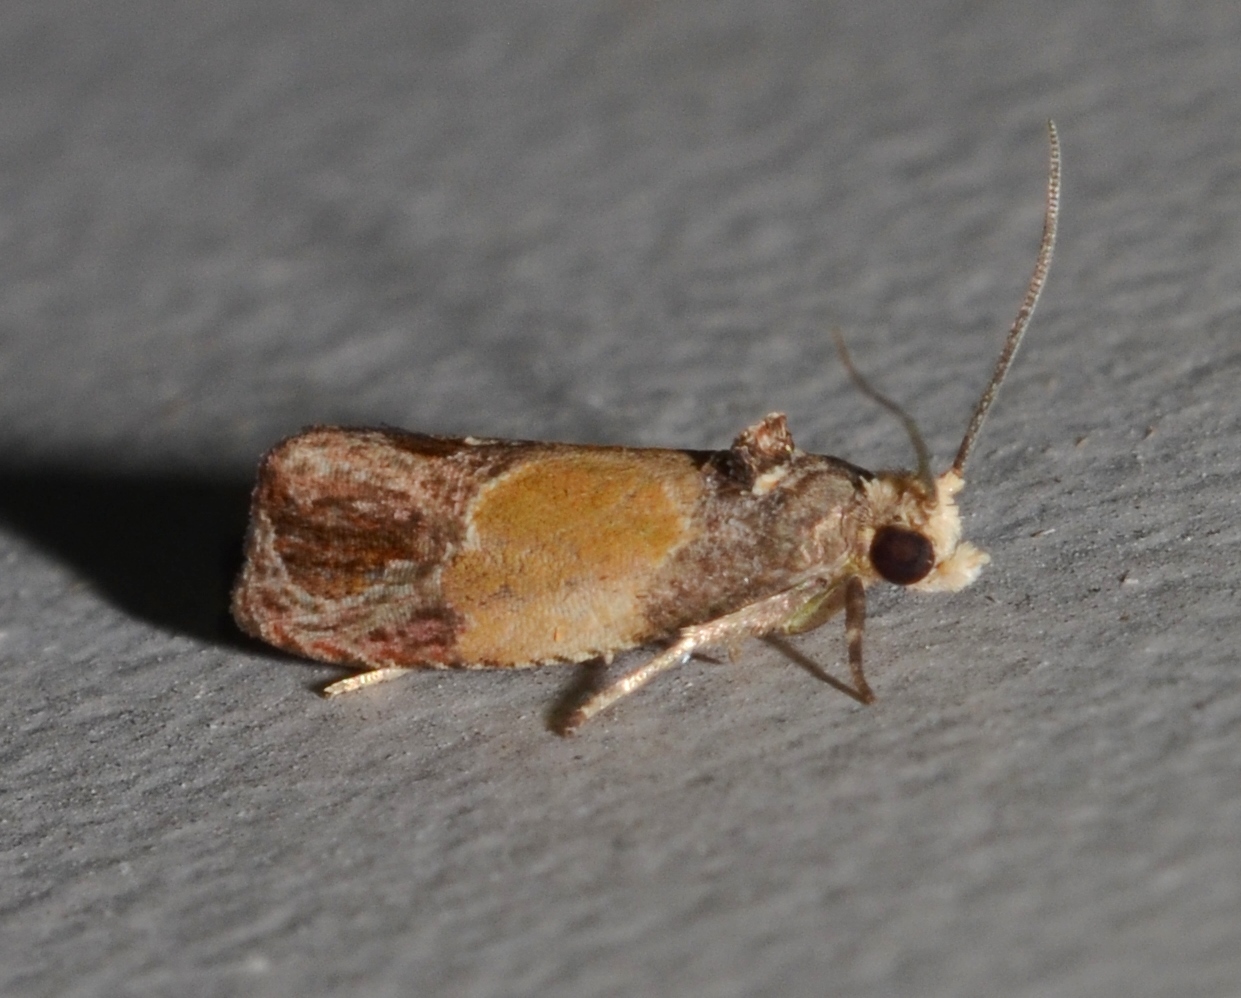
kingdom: Animalia
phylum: Arthropoda
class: Insecta
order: Lepidoptera
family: Tortricidae
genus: Eumarozia
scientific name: Eumarozia malachitana
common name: Sculptured moth
